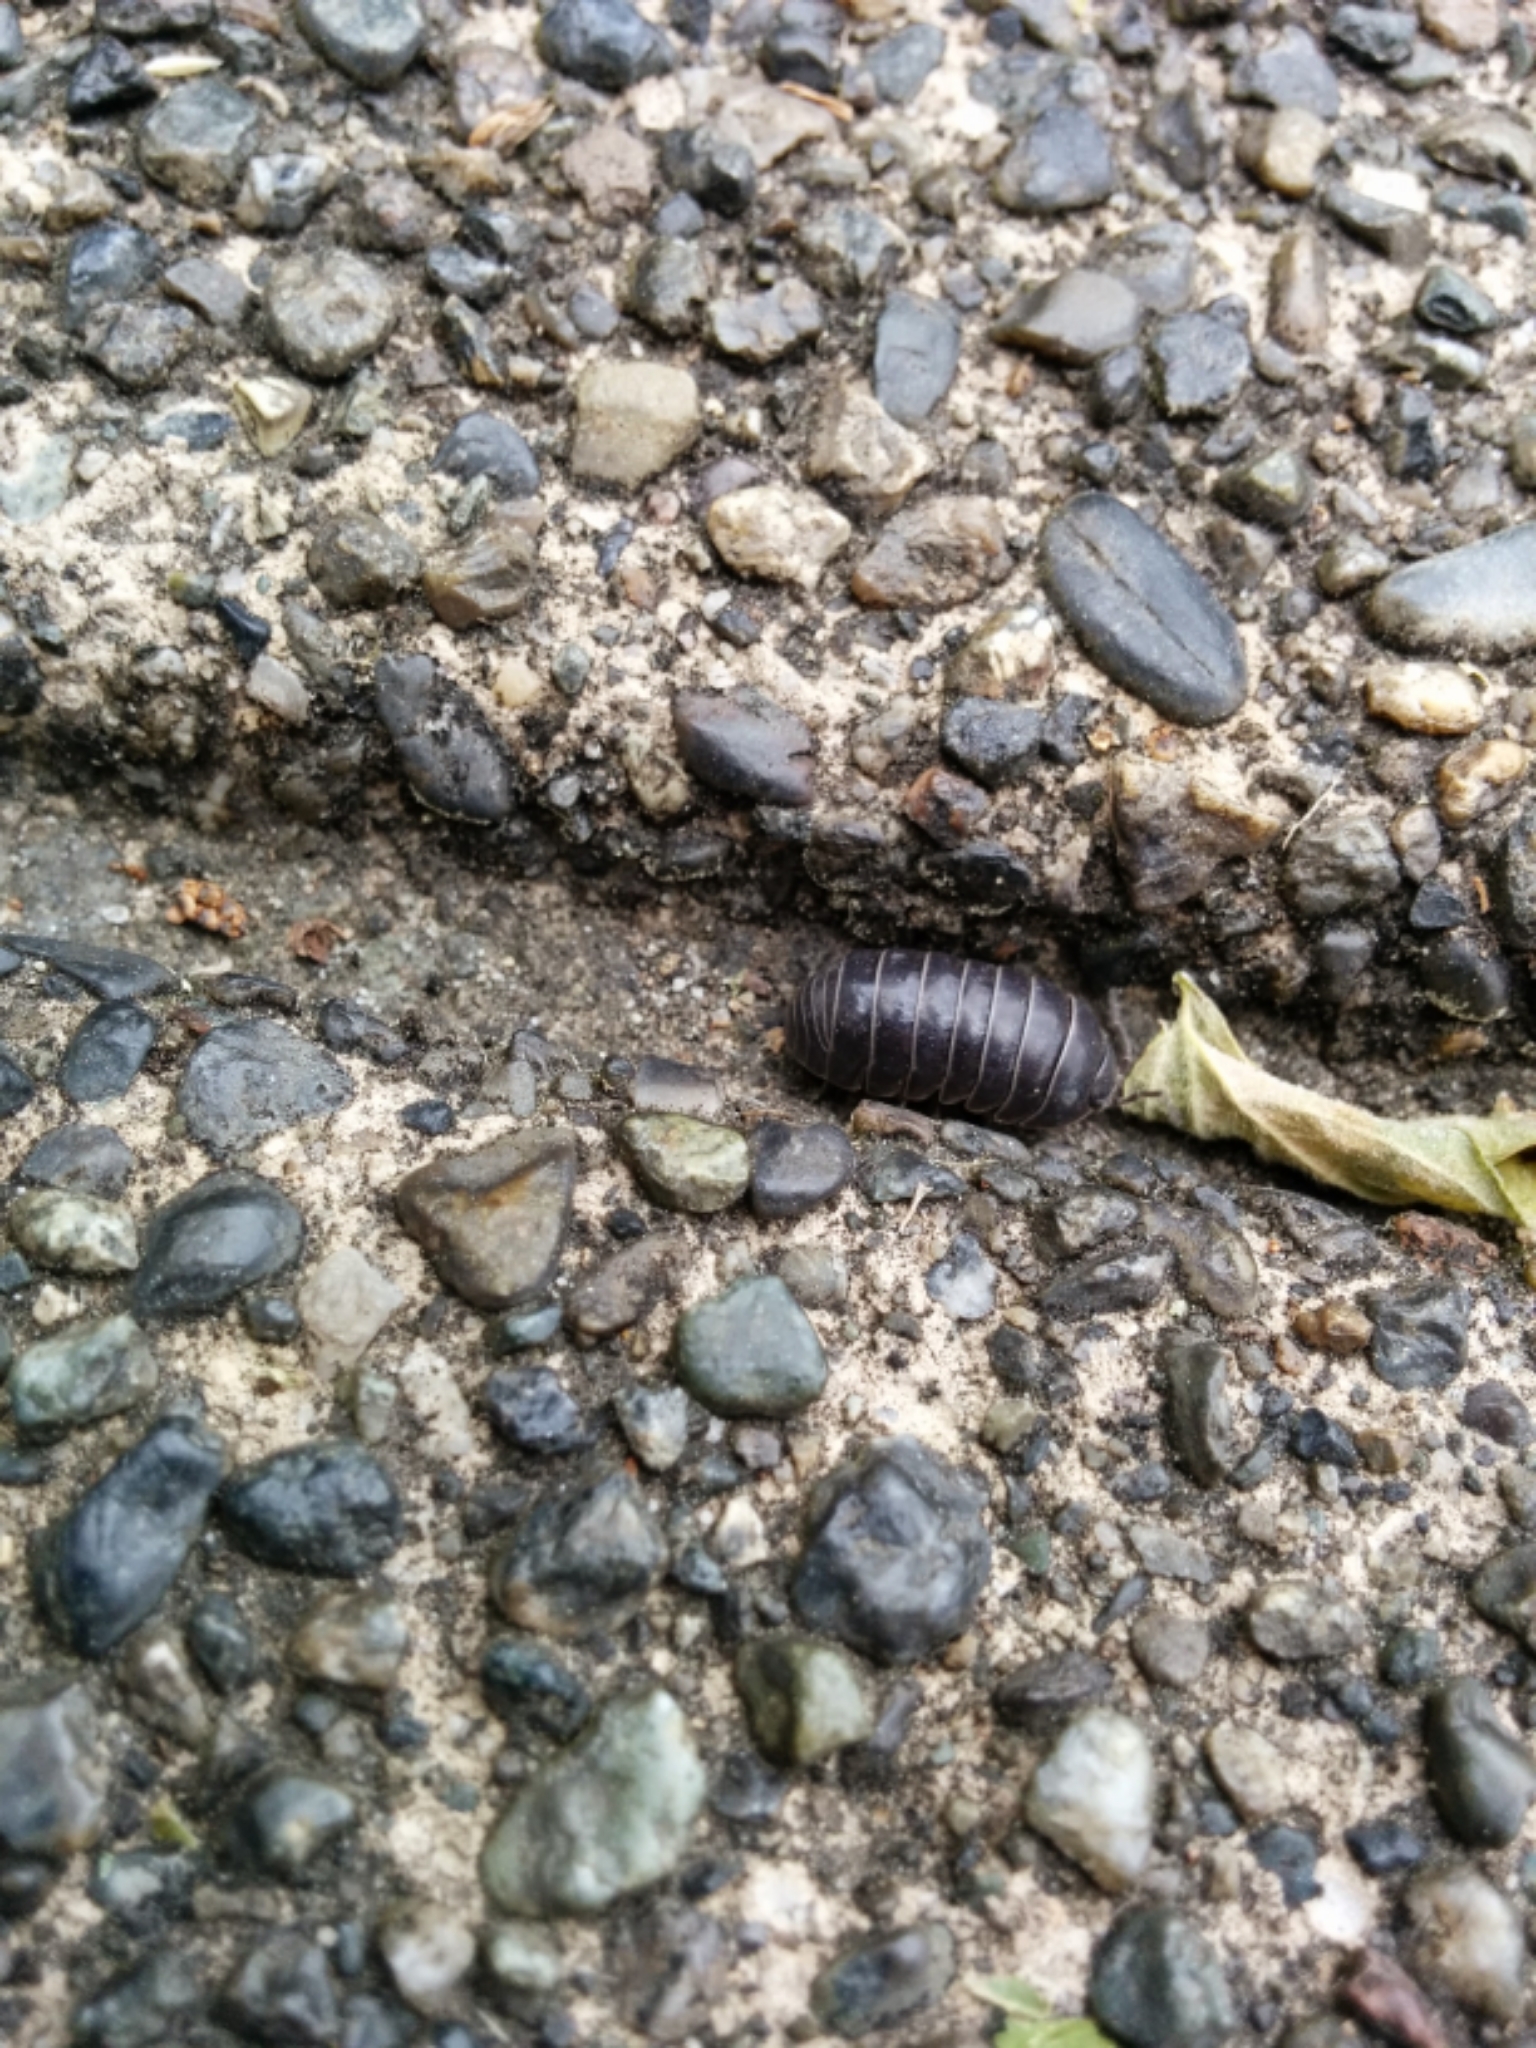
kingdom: Animalia
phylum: Arthropoda
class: Malacostraca
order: Isopoda
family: Armadillidiidae
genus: Armadillidium
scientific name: Armadillidium vulgare
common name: Common pill woodlouse
